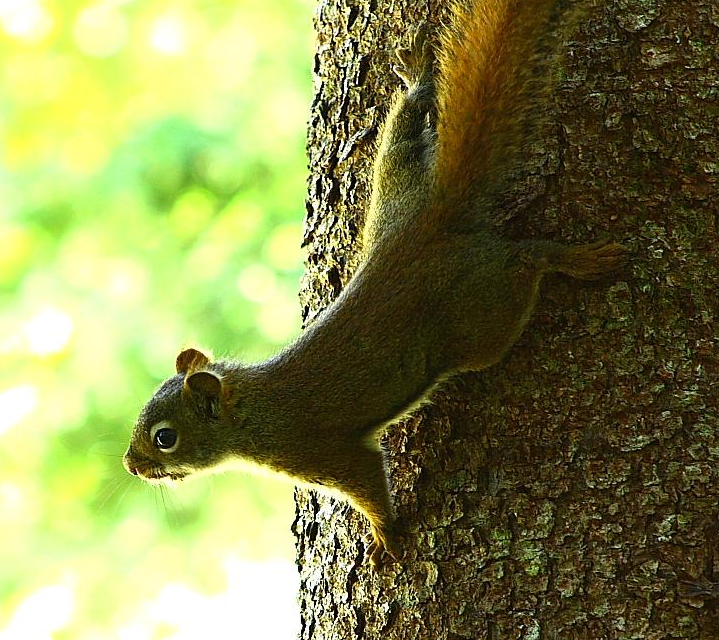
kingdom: Animalia
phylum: Chordata
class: Mammalia
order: Rodentia
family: Sciuridae
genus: Tamiasciurus
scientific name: Tamiasciurus hudsonicus
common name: Red squirrel
